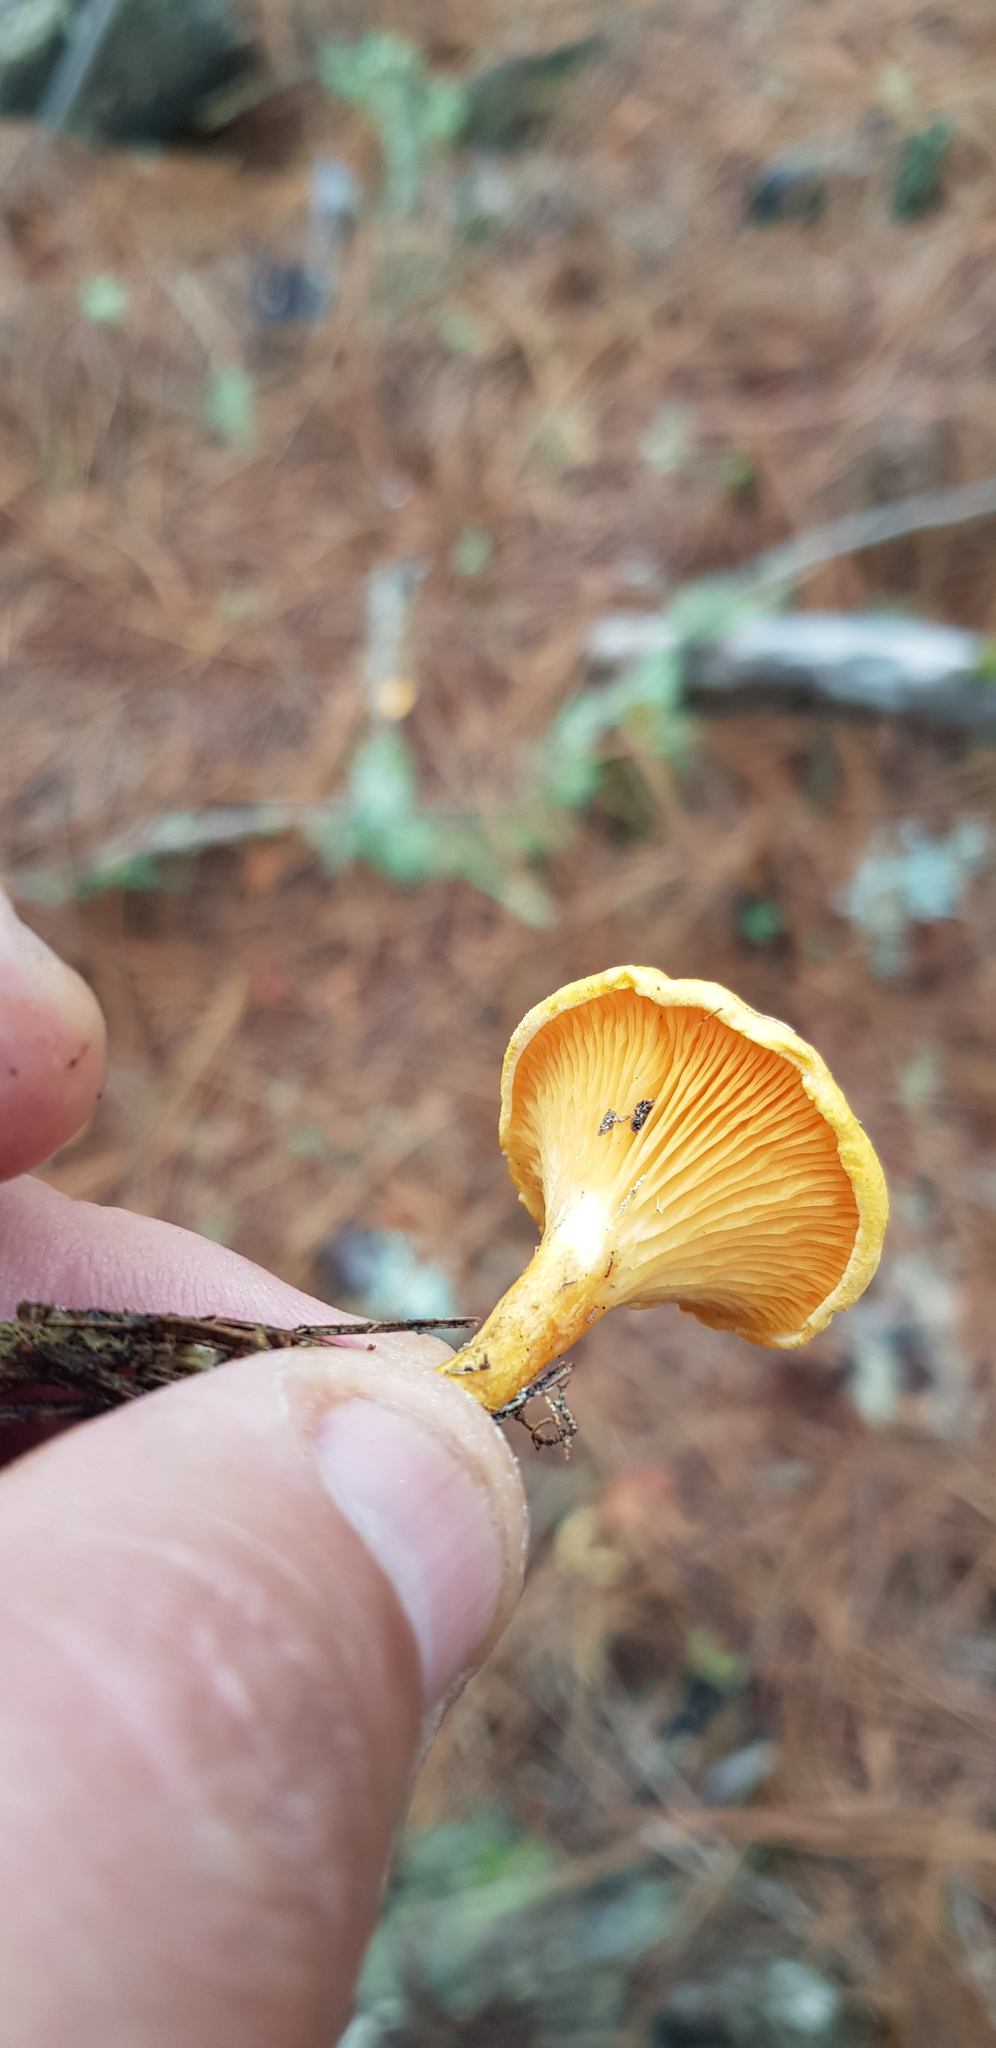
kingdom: Fungi
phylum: Basidiomycota
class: Agaricomycetes
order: Boletales
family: Hygrophoropsidaceae
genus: Hygrophoropsis
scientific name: Hygrophoropsis aurantiaca
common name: False chanterelle
